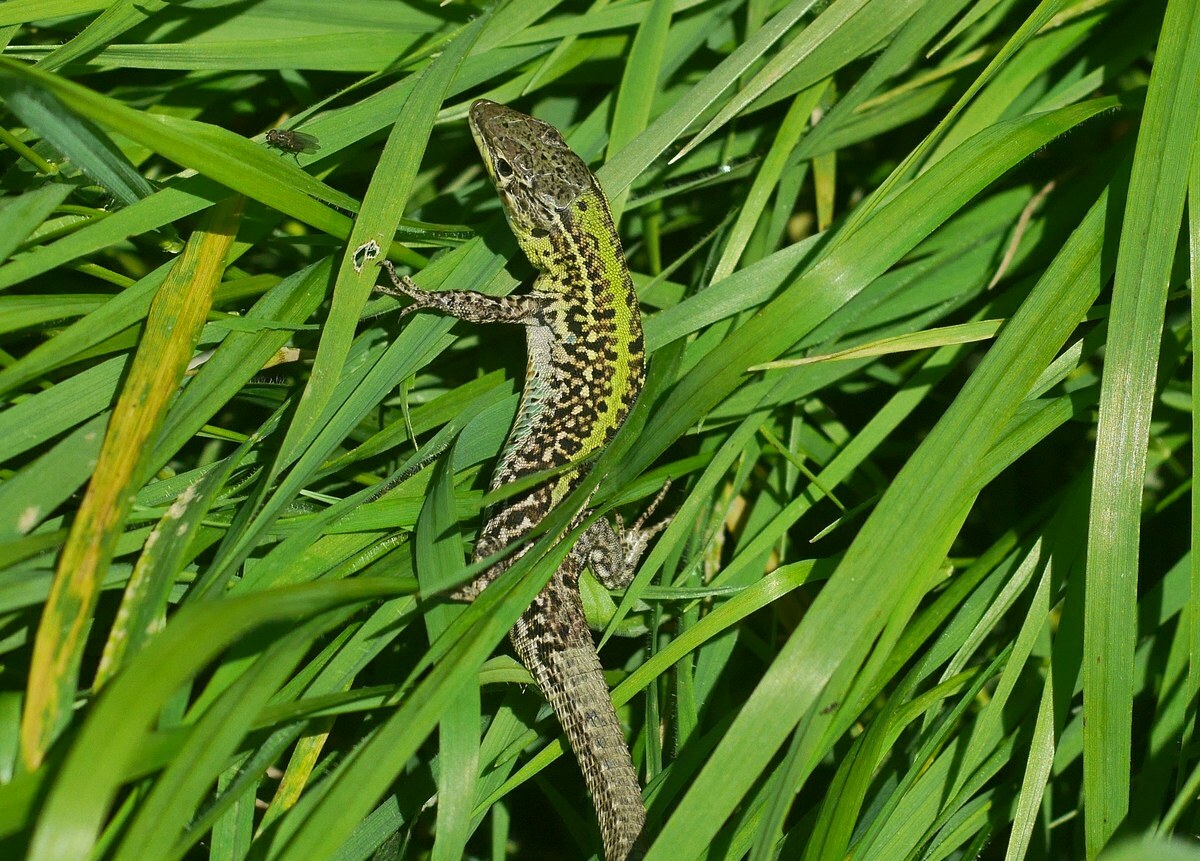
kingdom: Animalia
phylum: Chordata
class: Squamata
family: Lacertidae
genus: Podarcis
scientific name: Podarcis tauricus
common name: Balkan wall lizard
